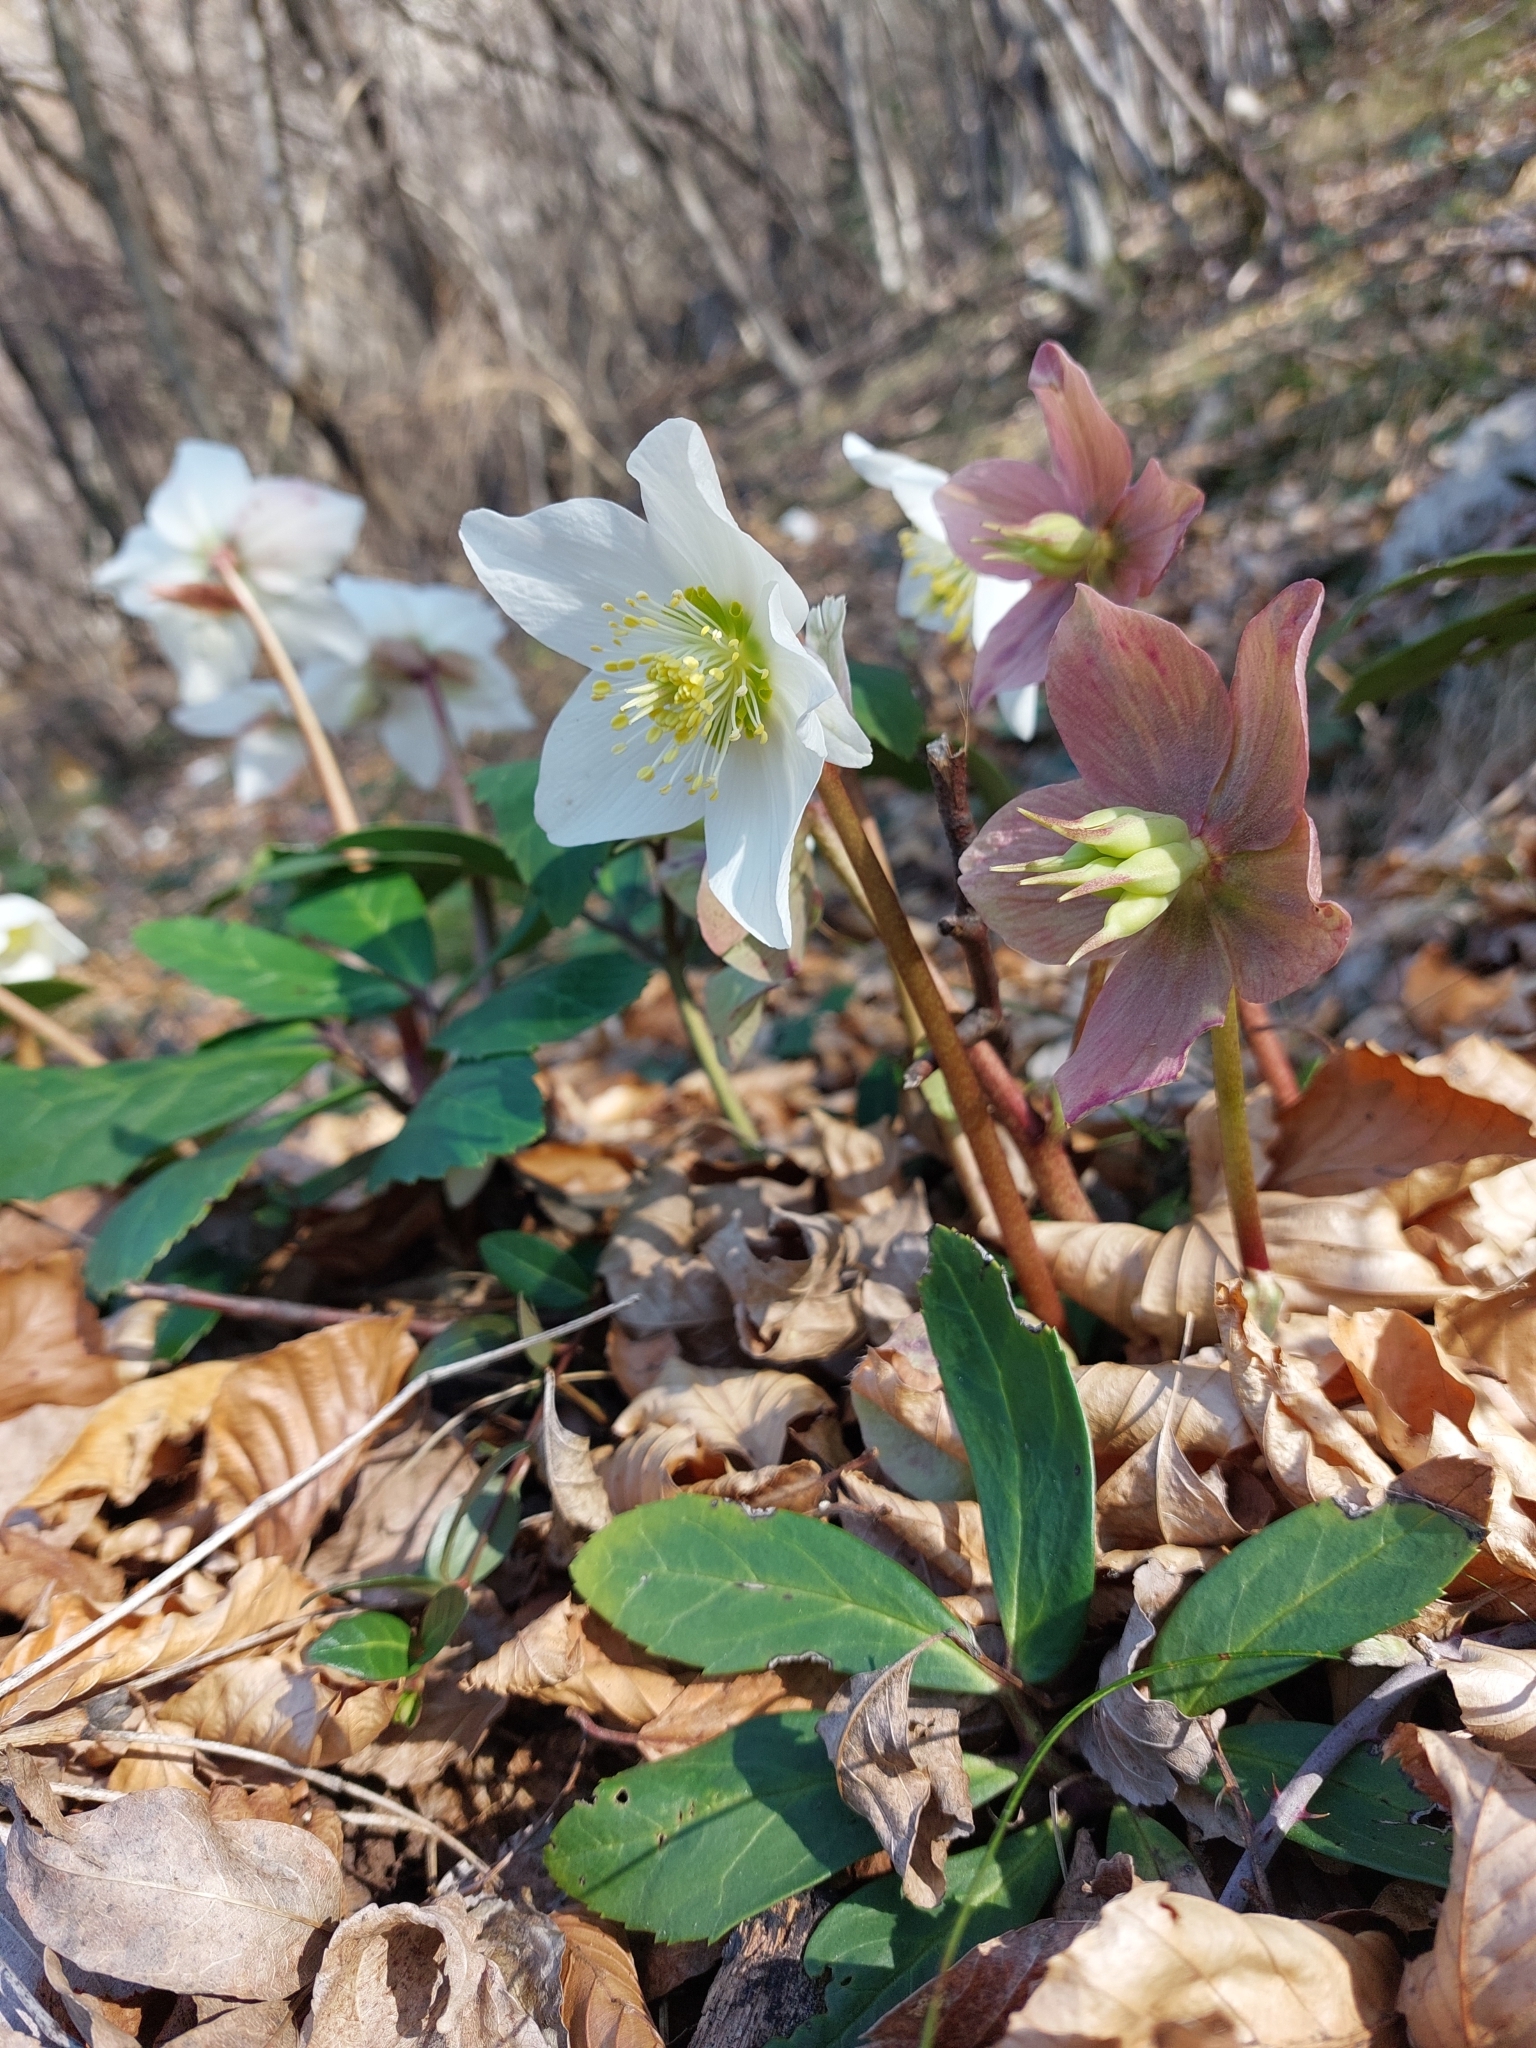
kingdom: Plantae
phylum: Tracheophyta
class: Magnoliopsida
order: Ranunculales
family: Ranunculaceae
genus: Helleborus
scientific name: Helleborus niger
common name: Black hellebore
